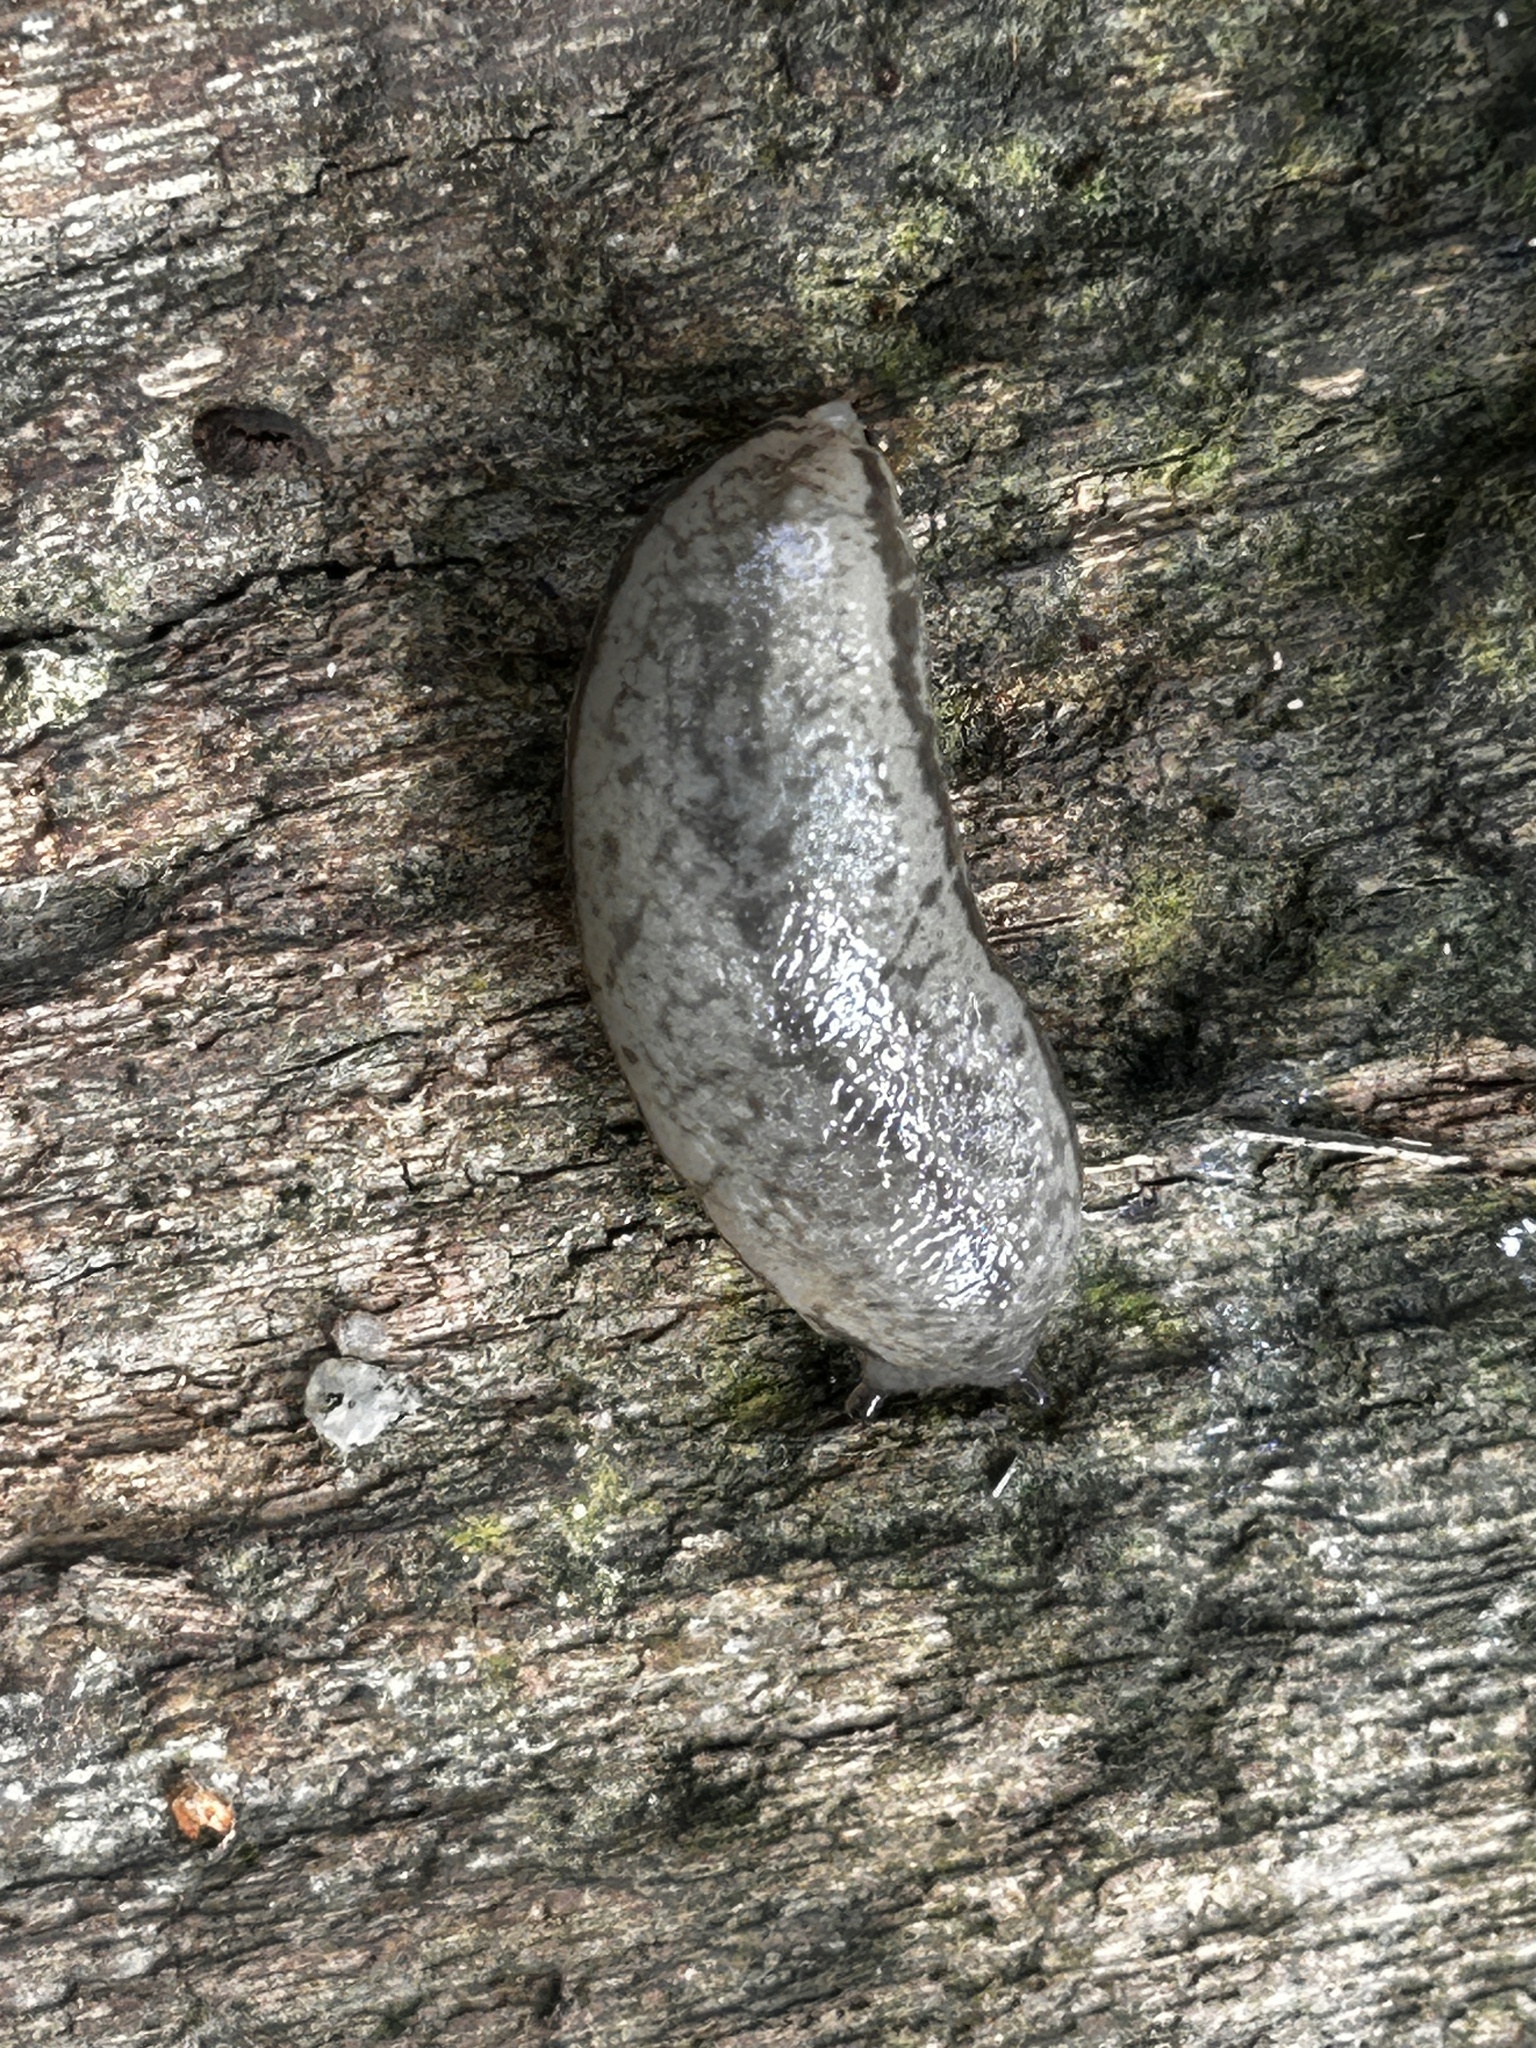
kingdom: Animalia
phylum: Mollusca
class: Gastropoda
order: Stylommatophora
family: Philomycidae
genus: Meghimatium
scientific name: Meghimatium bilineatum
